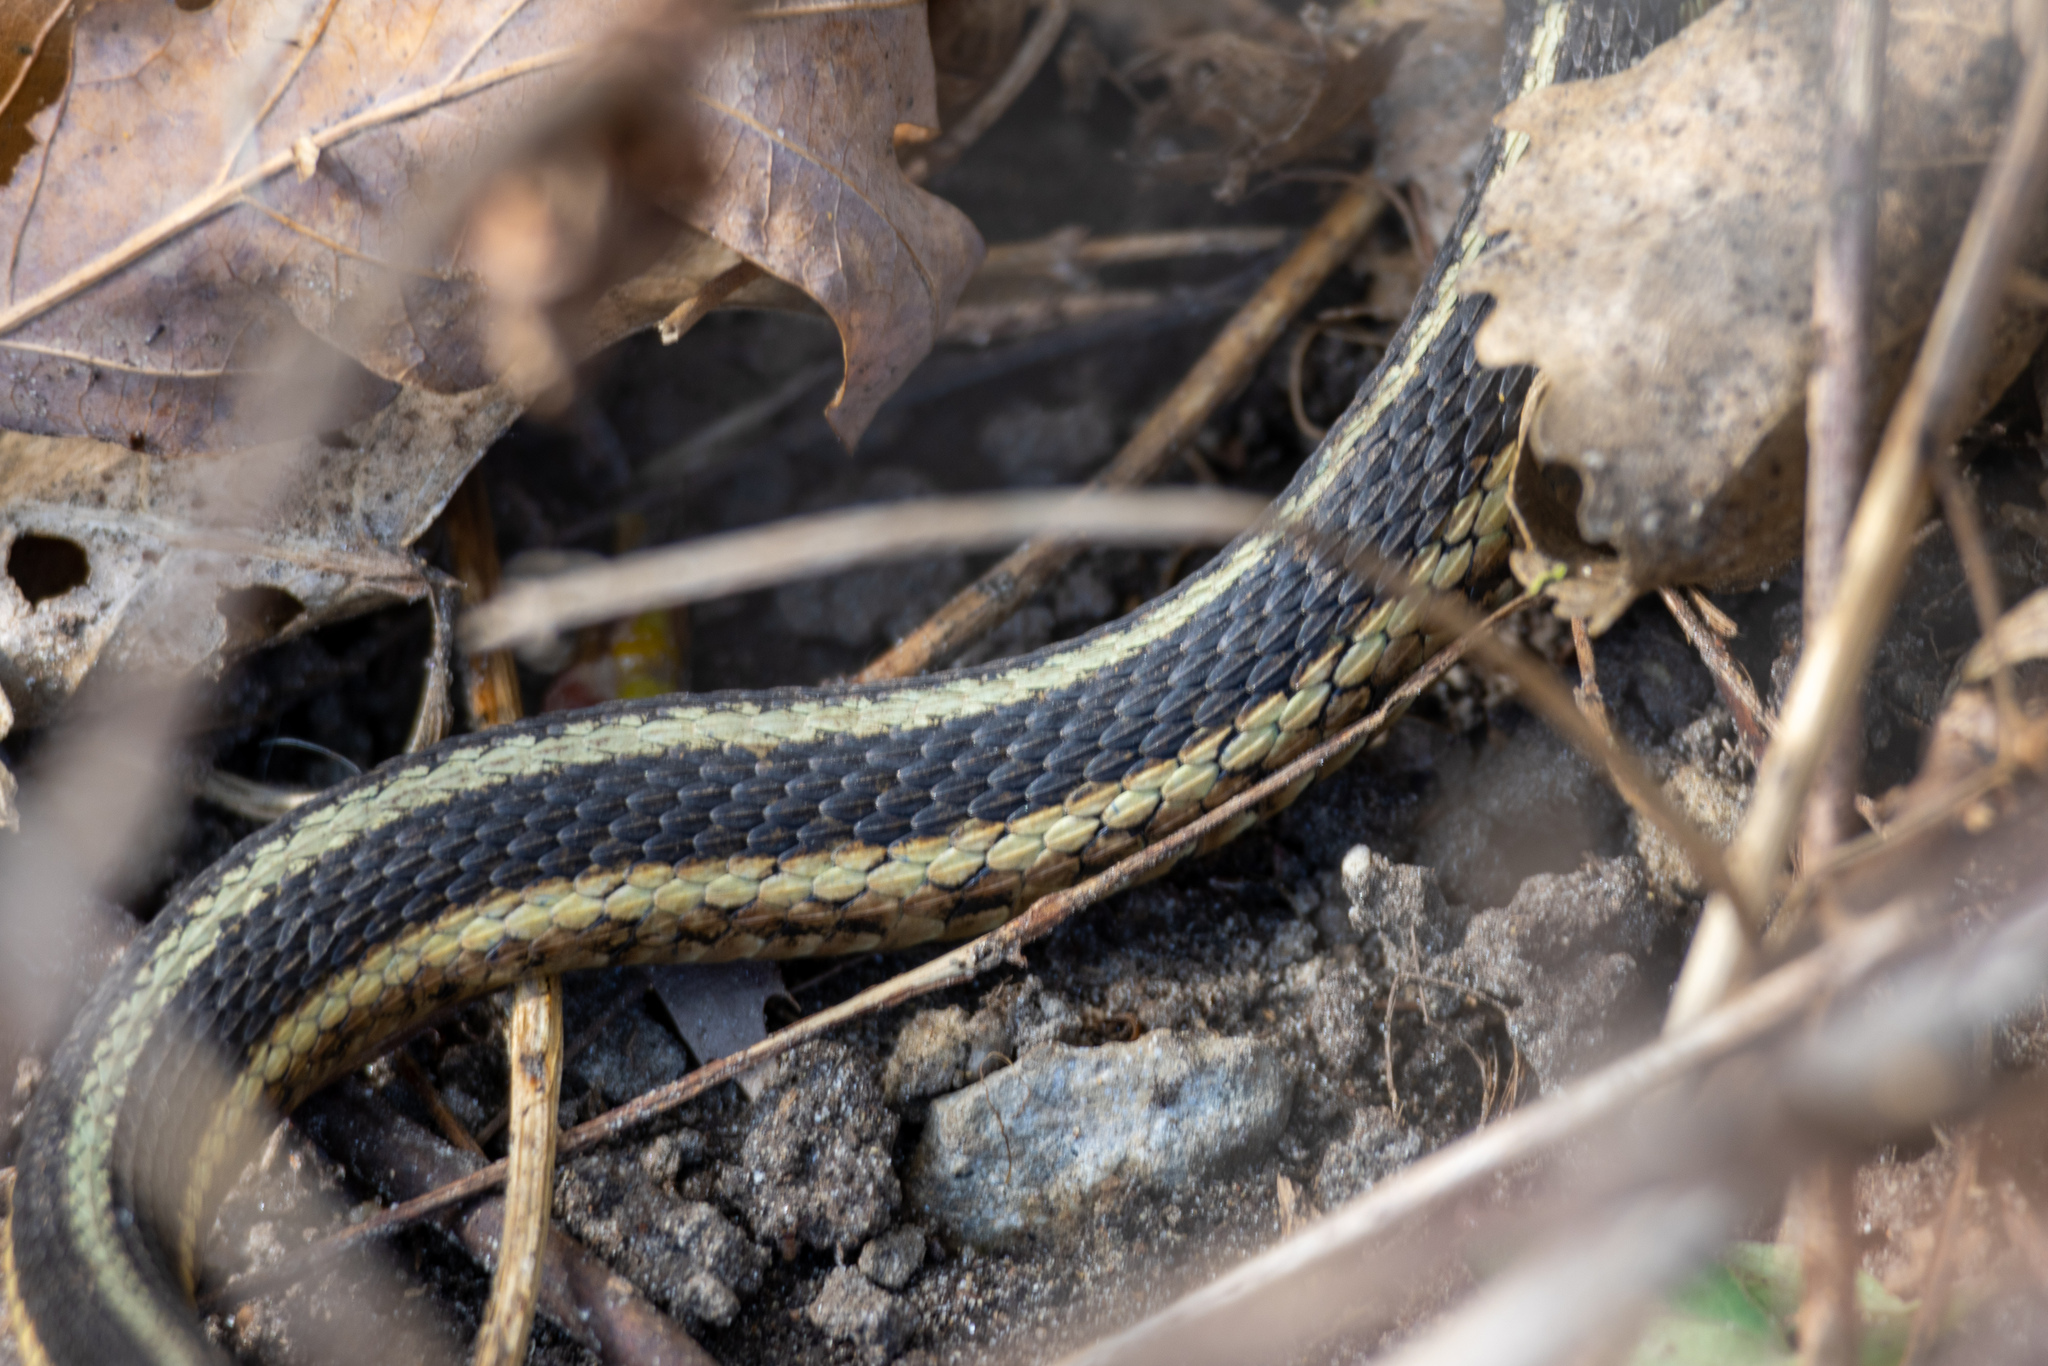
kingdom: Animalia
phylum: Chordata
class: Squamata
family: Colubridae
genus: Thamnophis
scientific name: Thamnophis sirtalis
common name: Common garter snake
